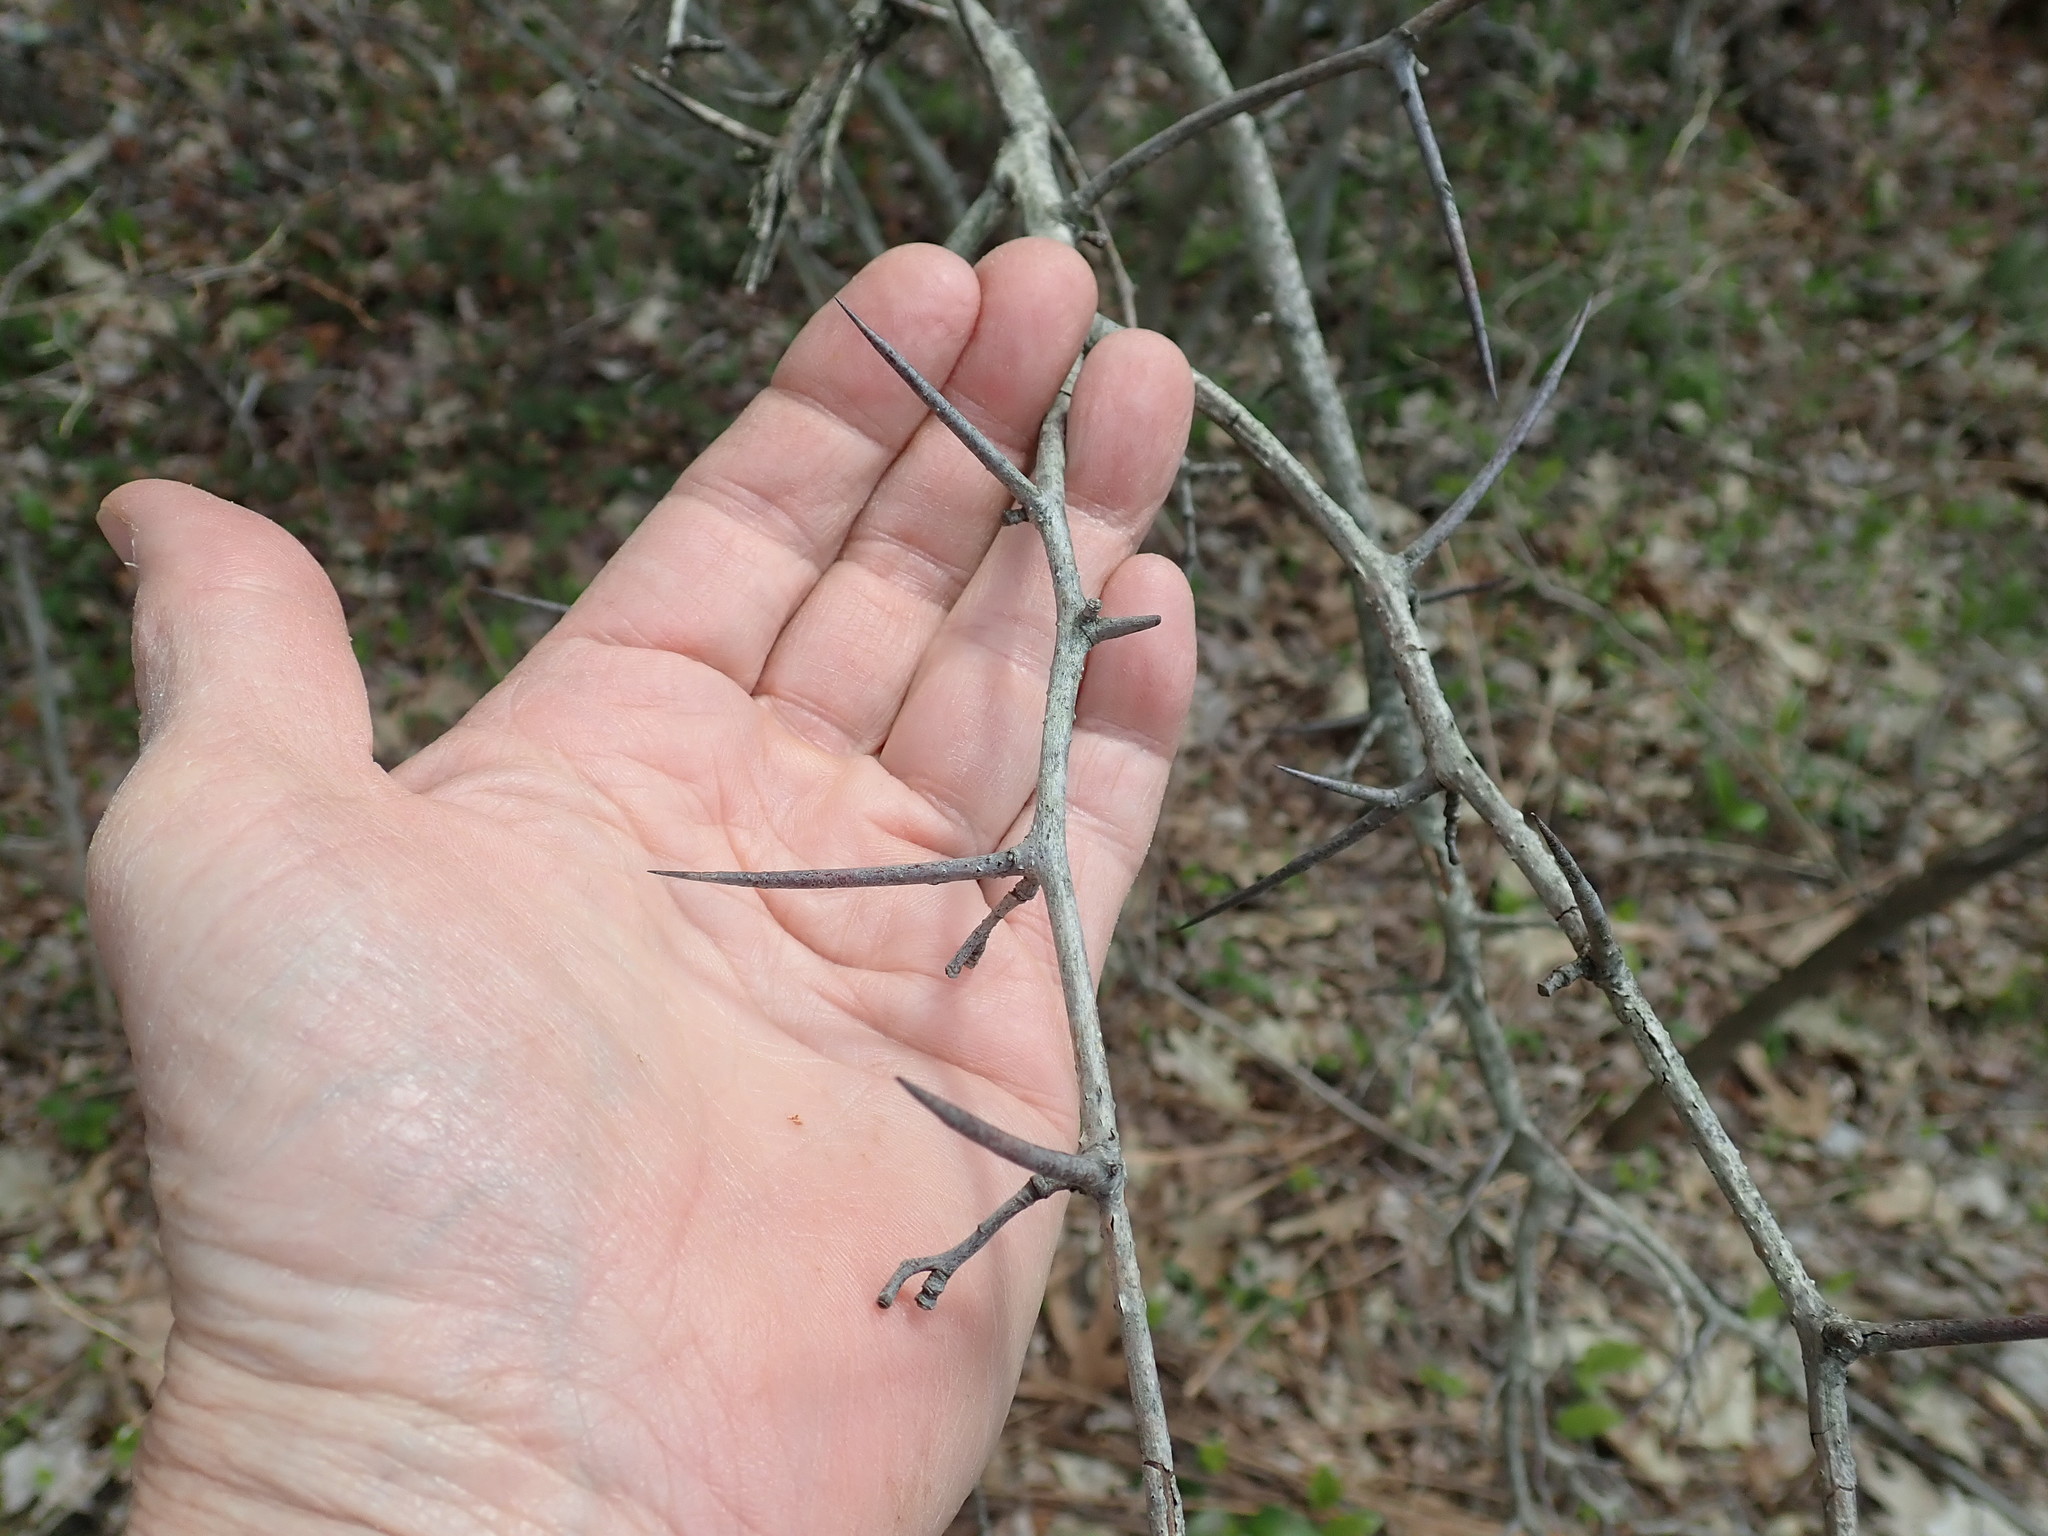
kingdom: Plantae
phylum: Tracheophyta
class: Magnoliopsida
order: Rosales
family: Rosaceae
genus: Crataegus
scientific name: Crataegus
